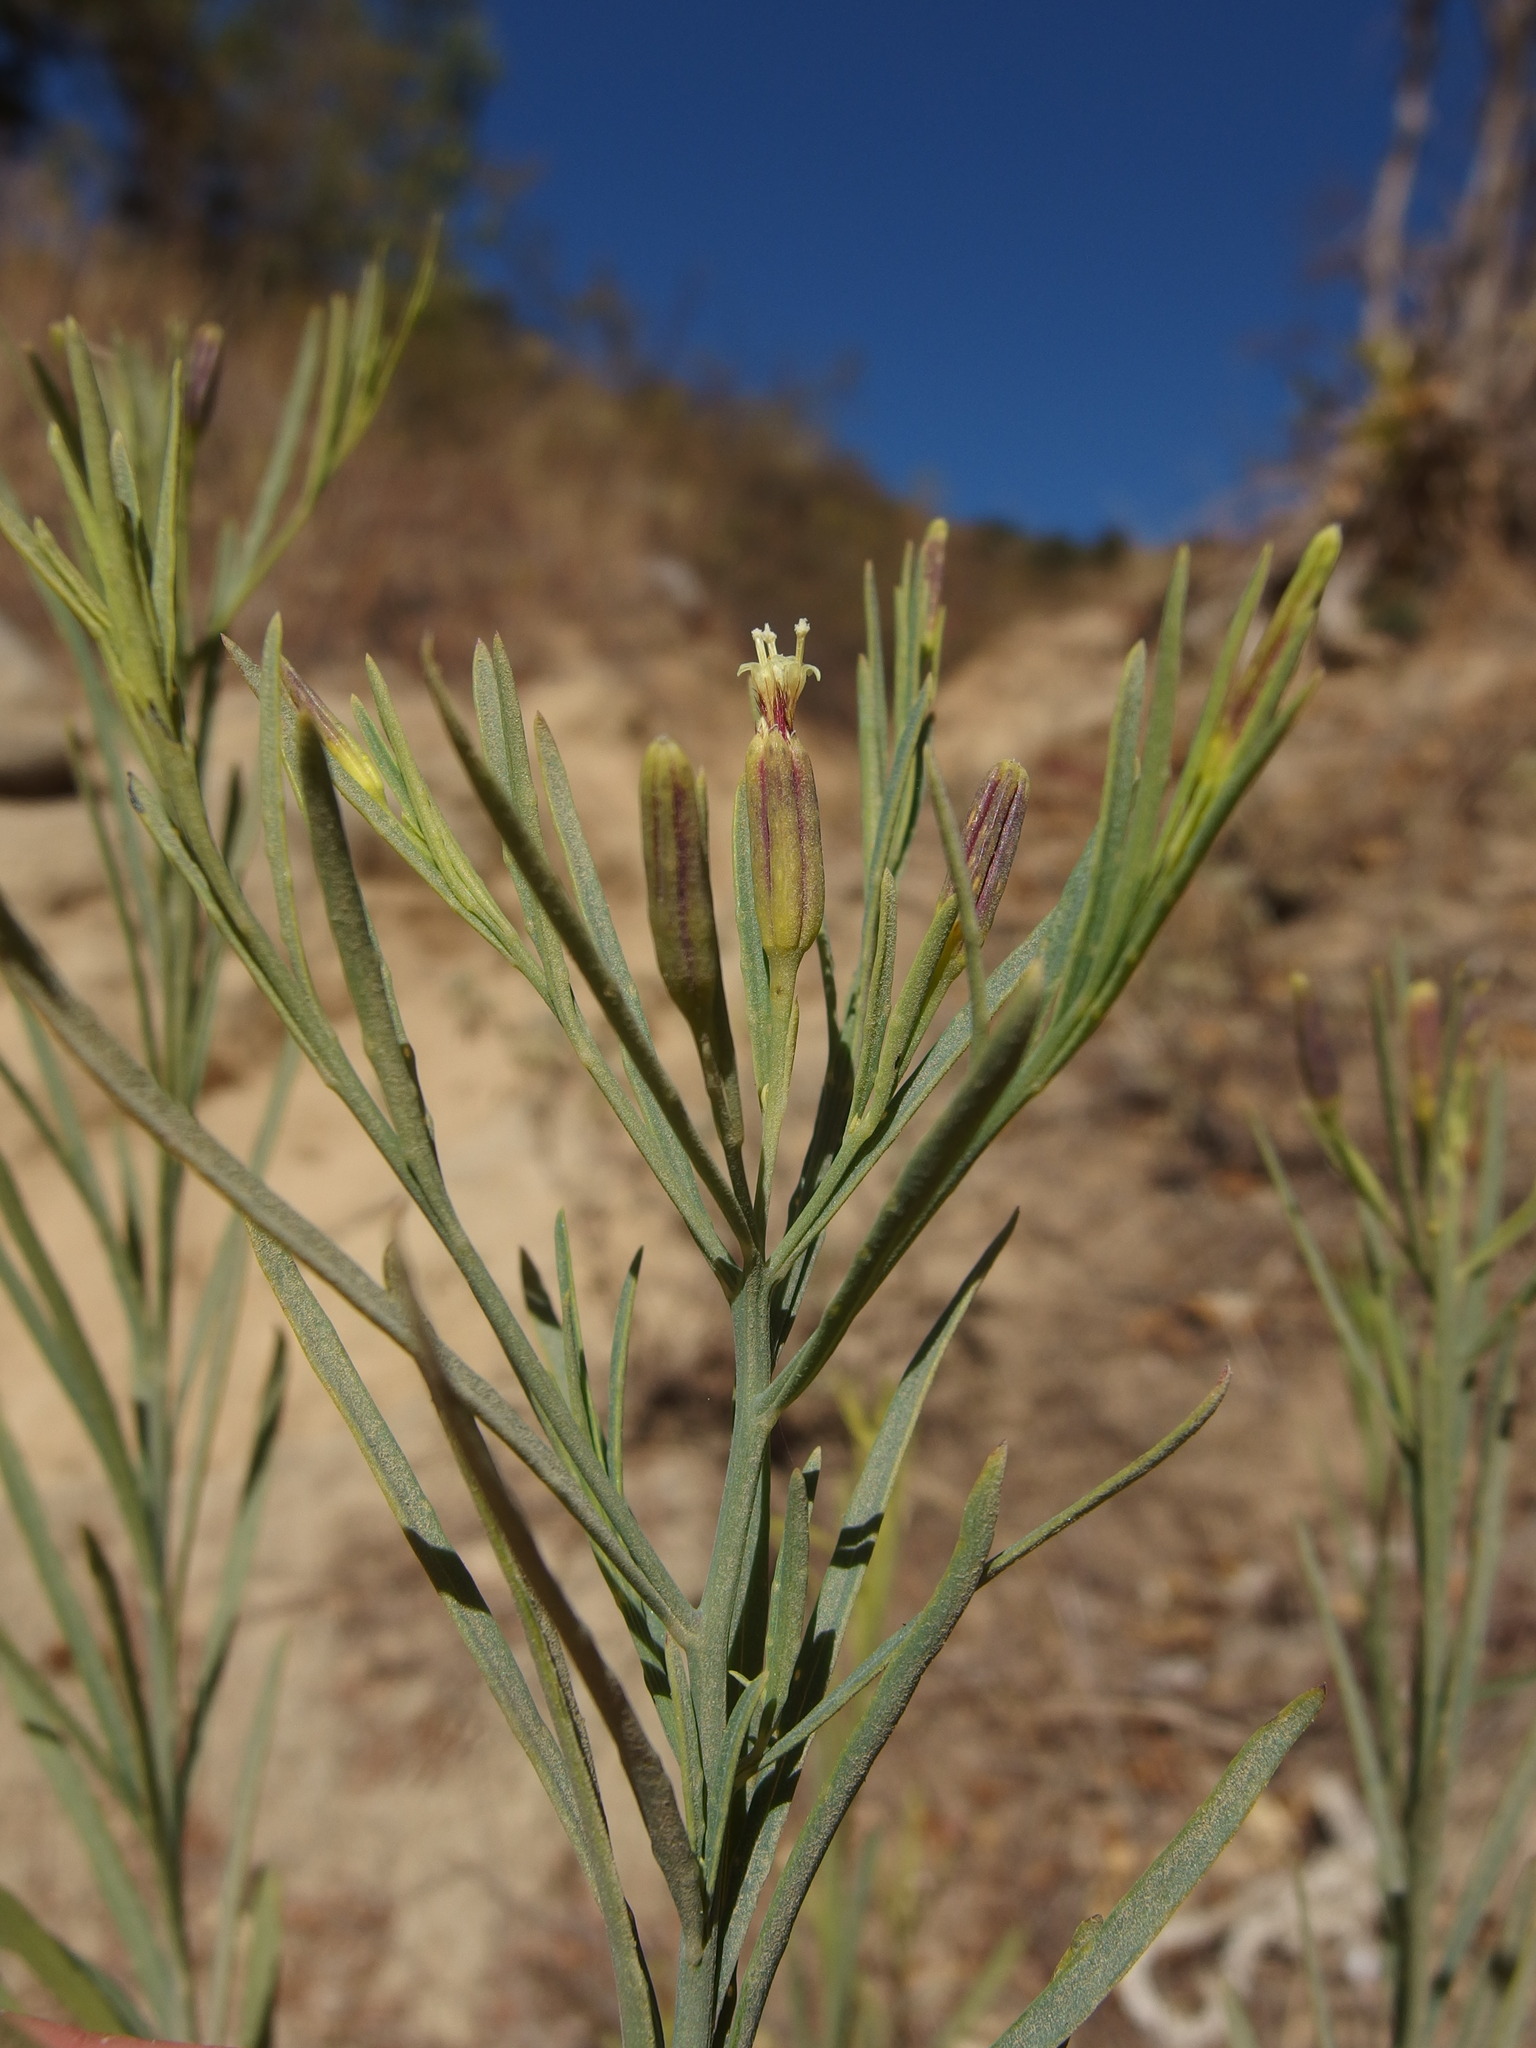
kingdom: Plantae
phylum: Tracheophyta
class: Magnoliopsida
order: Asterales
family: Asteraceae
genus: Porophyllum
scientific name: Porophyllum gracile
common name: Odora
